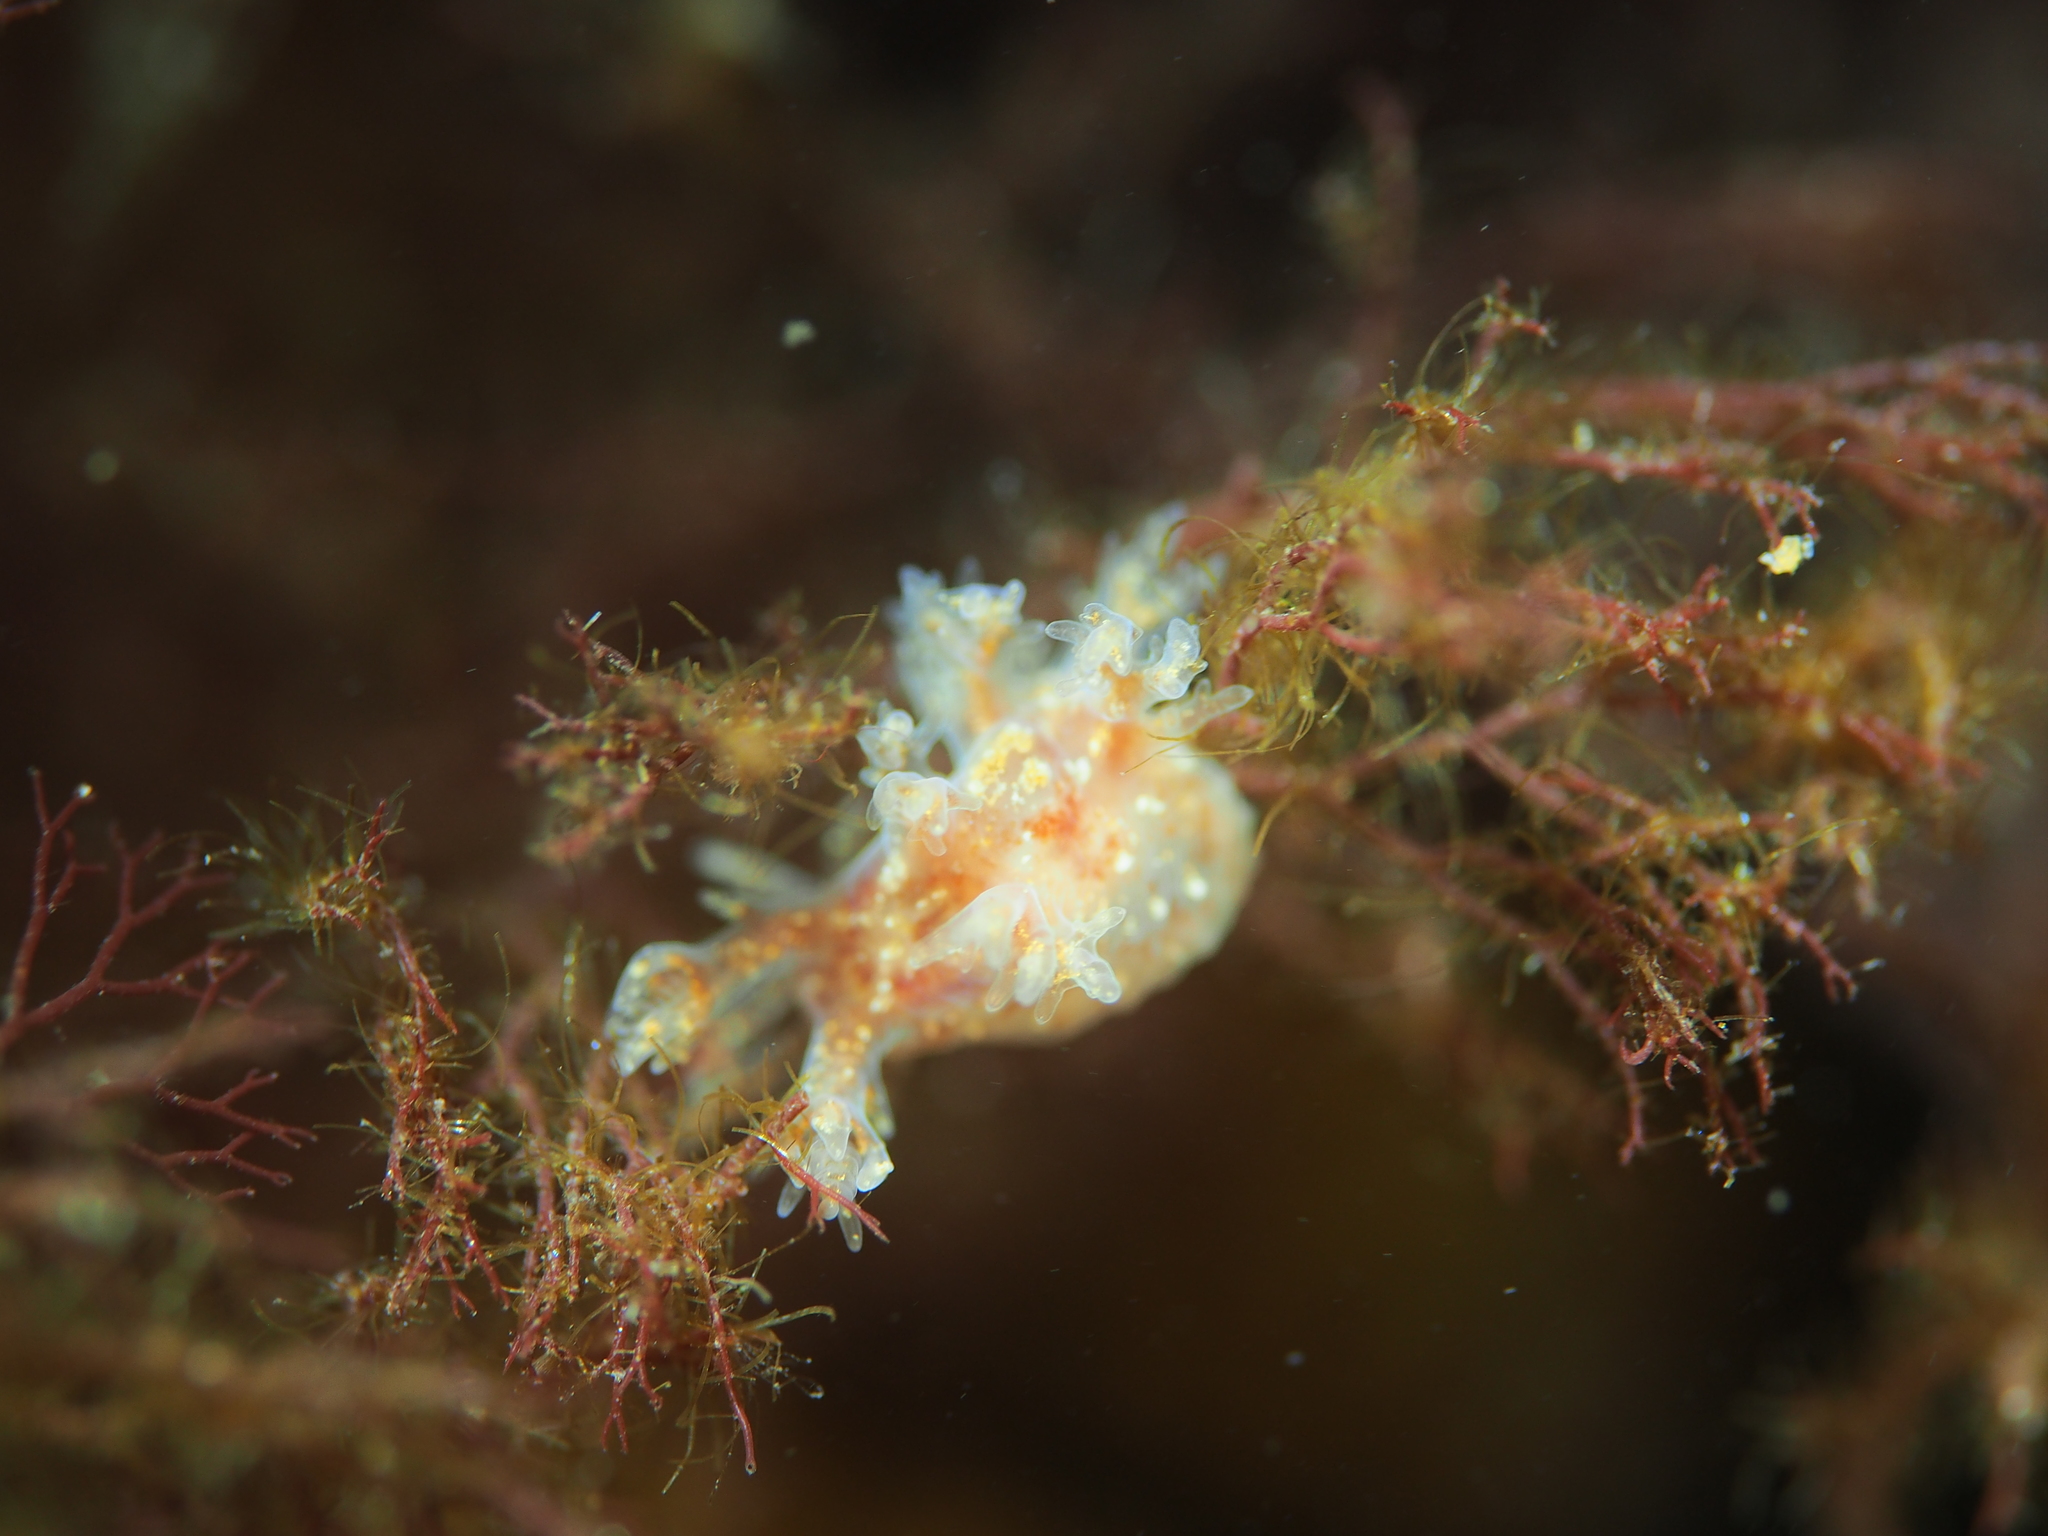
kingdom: Animalia
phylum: Mollusca
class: Gastropoda
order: Nudibranchia
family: Dendronotidae
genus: Dendronotus
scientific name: Dendronotus frondosus
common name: Bushy-backed nudibranch
